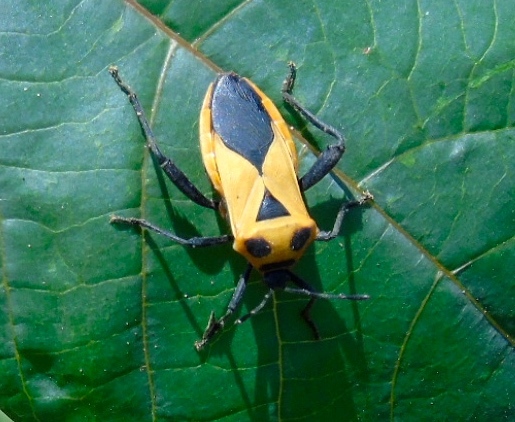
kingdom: Animalia
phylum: Arthropoda
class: Insecta
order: Hemiptera
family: Coreidae
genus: Sagotylus
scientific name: Sagotylus confluens
